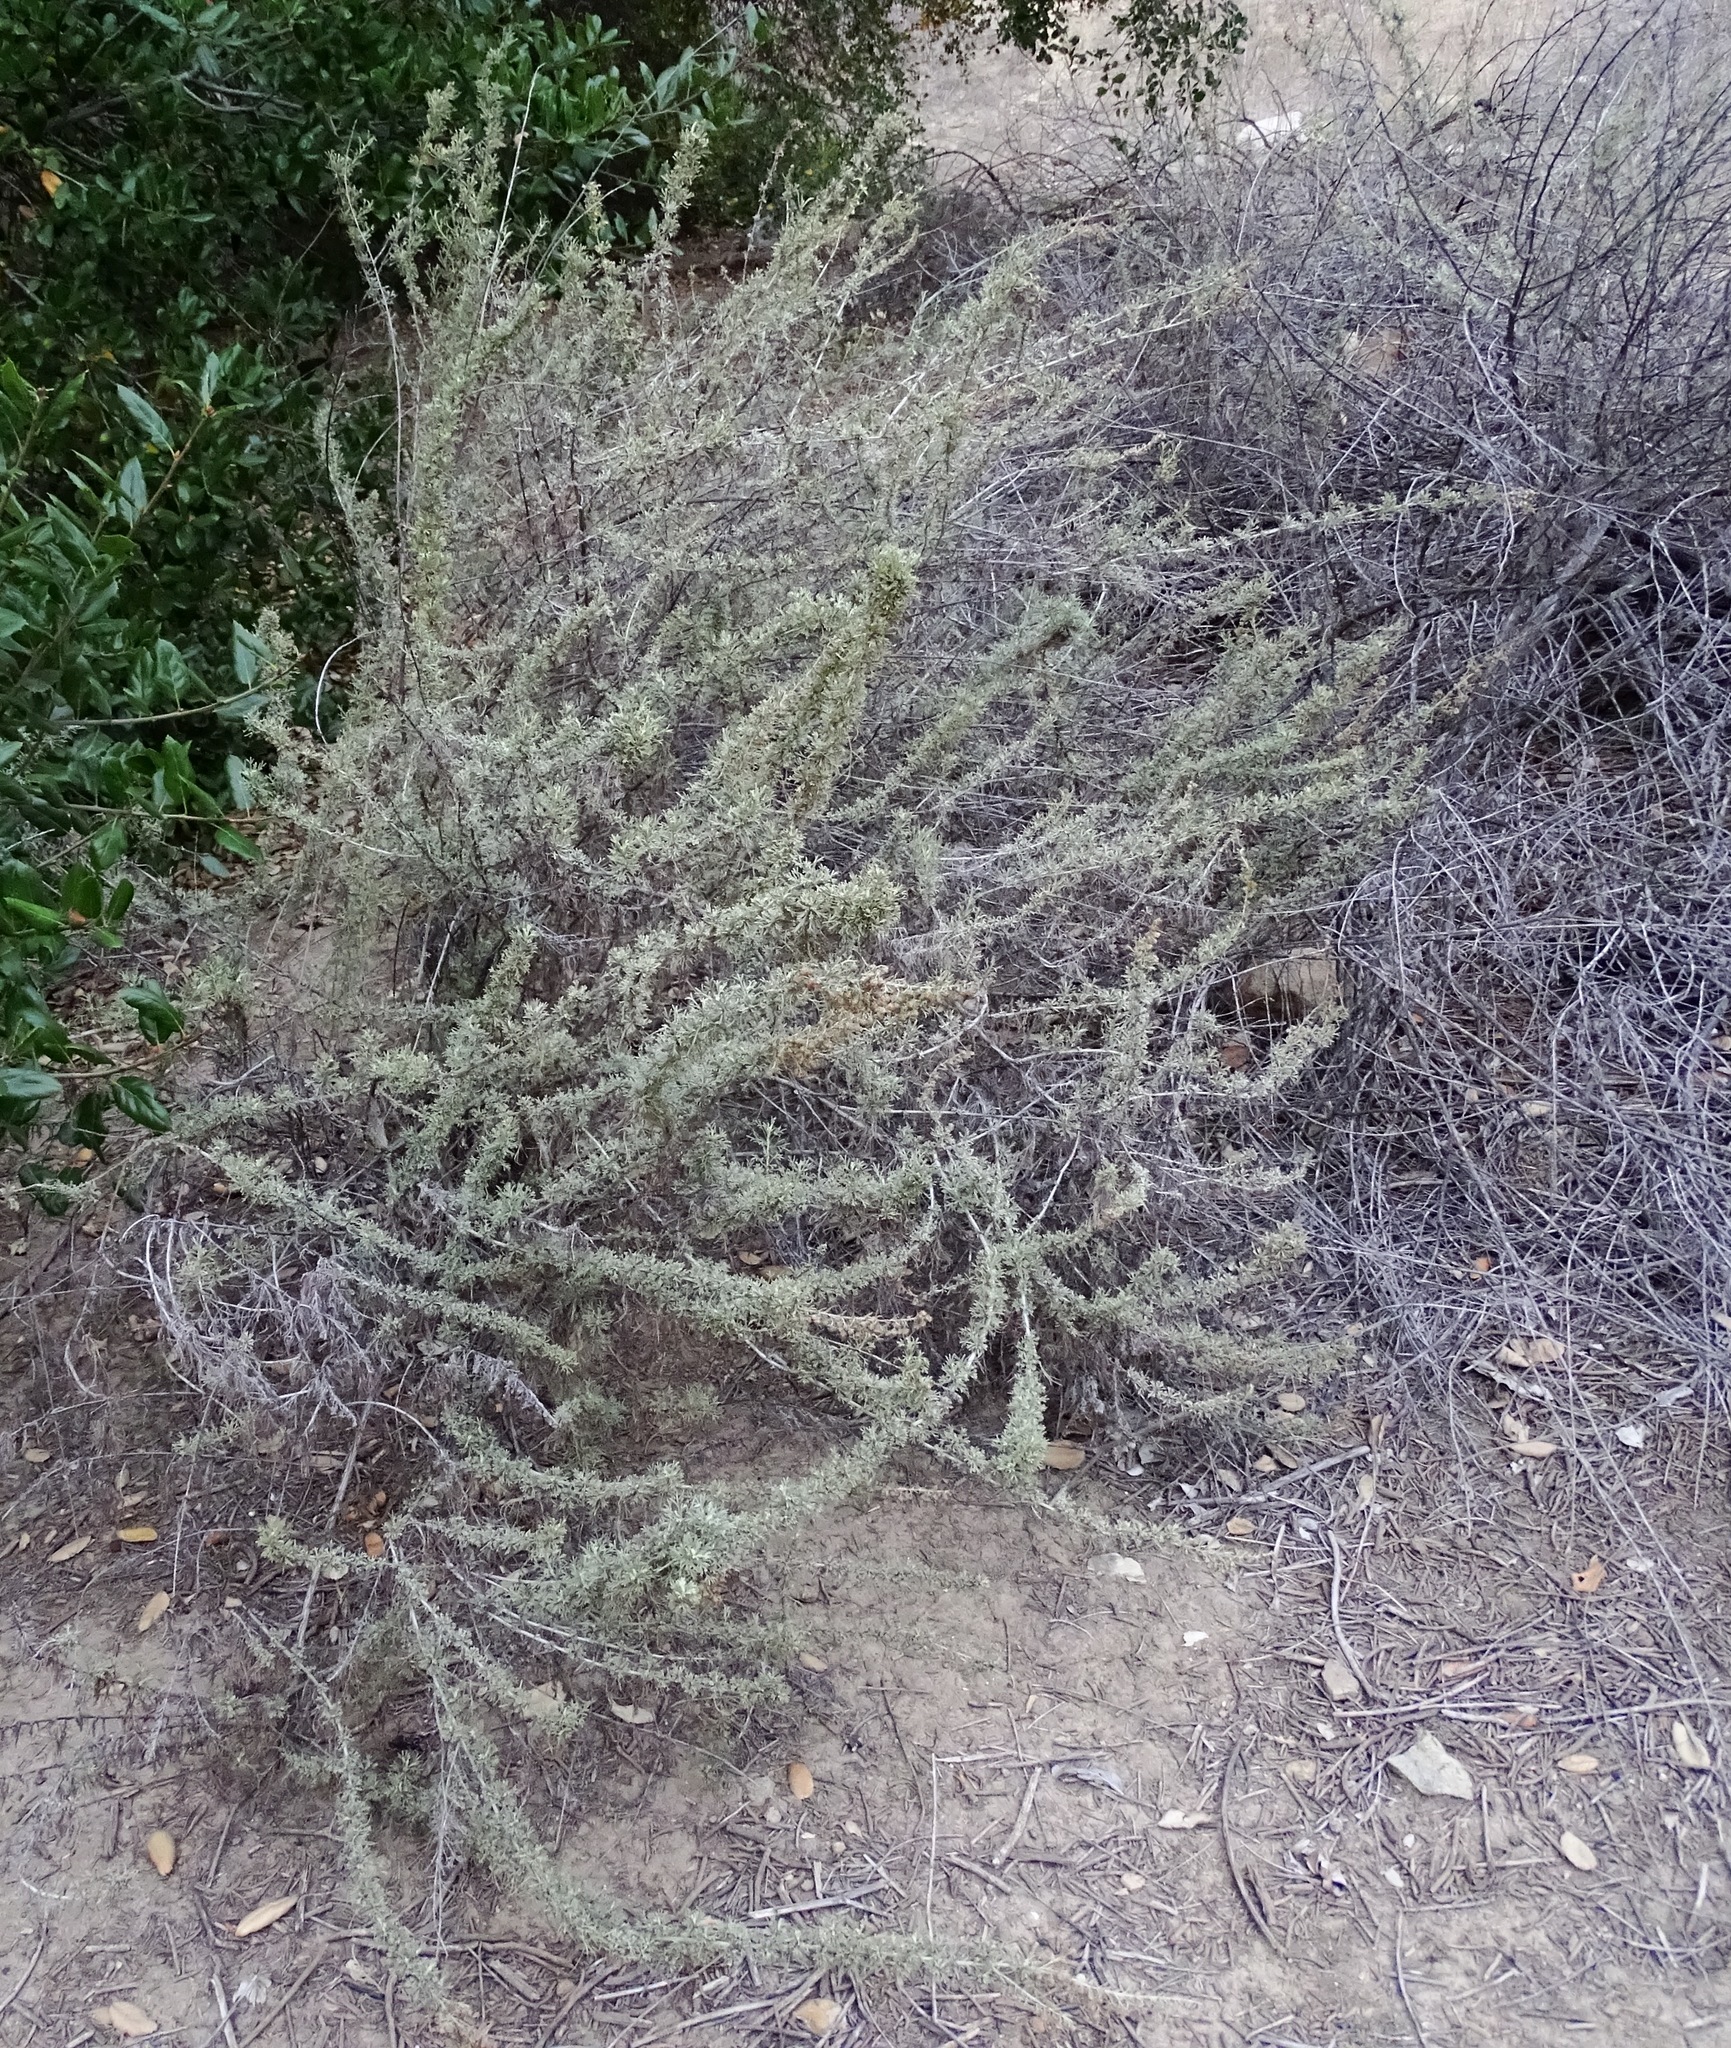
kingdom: Plantae
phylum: Tracheophyta
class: Magnoliopsida
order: Asterales
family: Asteraceae
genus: Artemisia
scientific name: Artemisia californica
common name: California sagebrush
